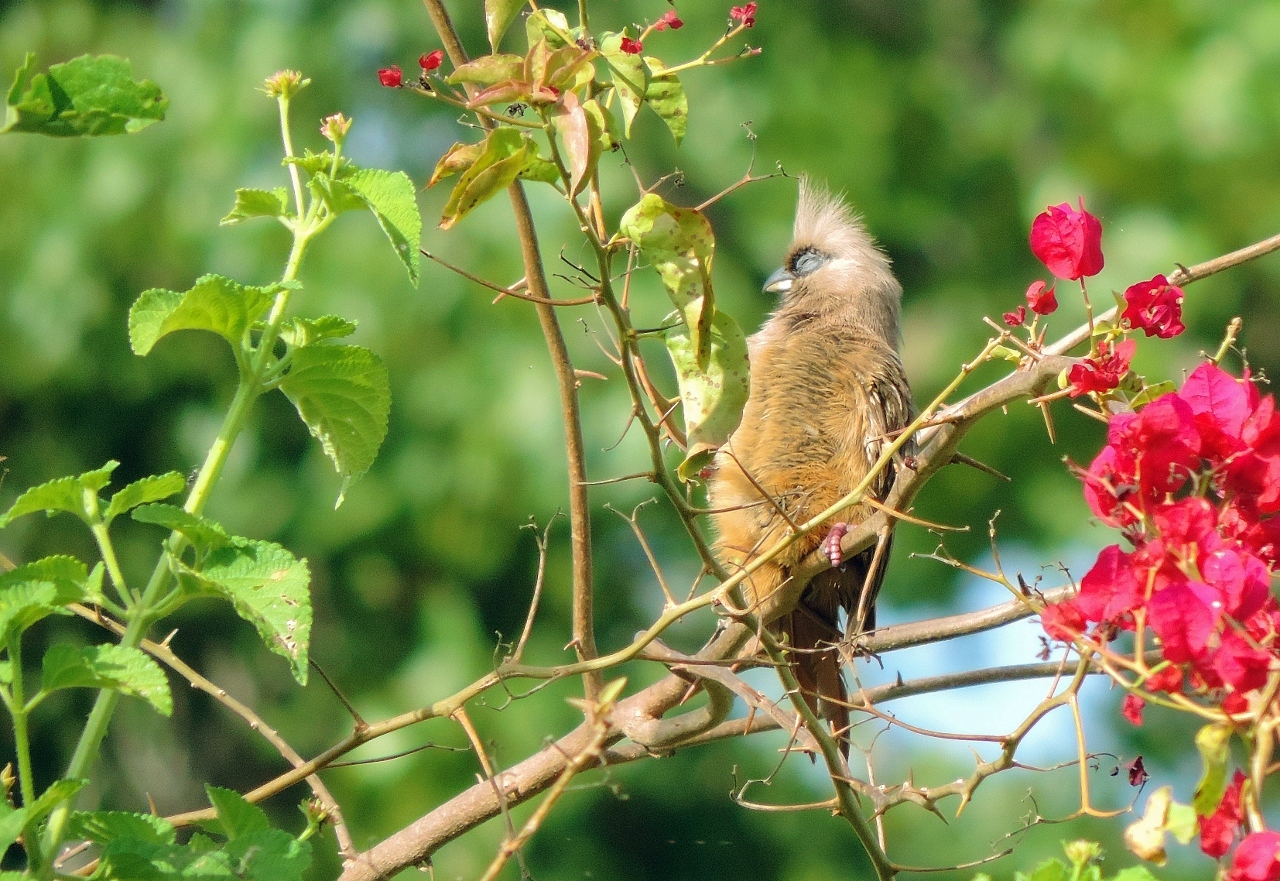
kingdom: Animalia
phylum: Chordata
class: Aves
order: Coliiformes
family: Coliidae
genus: Colius
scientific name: Colius striatus
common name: Speckled mousebird
